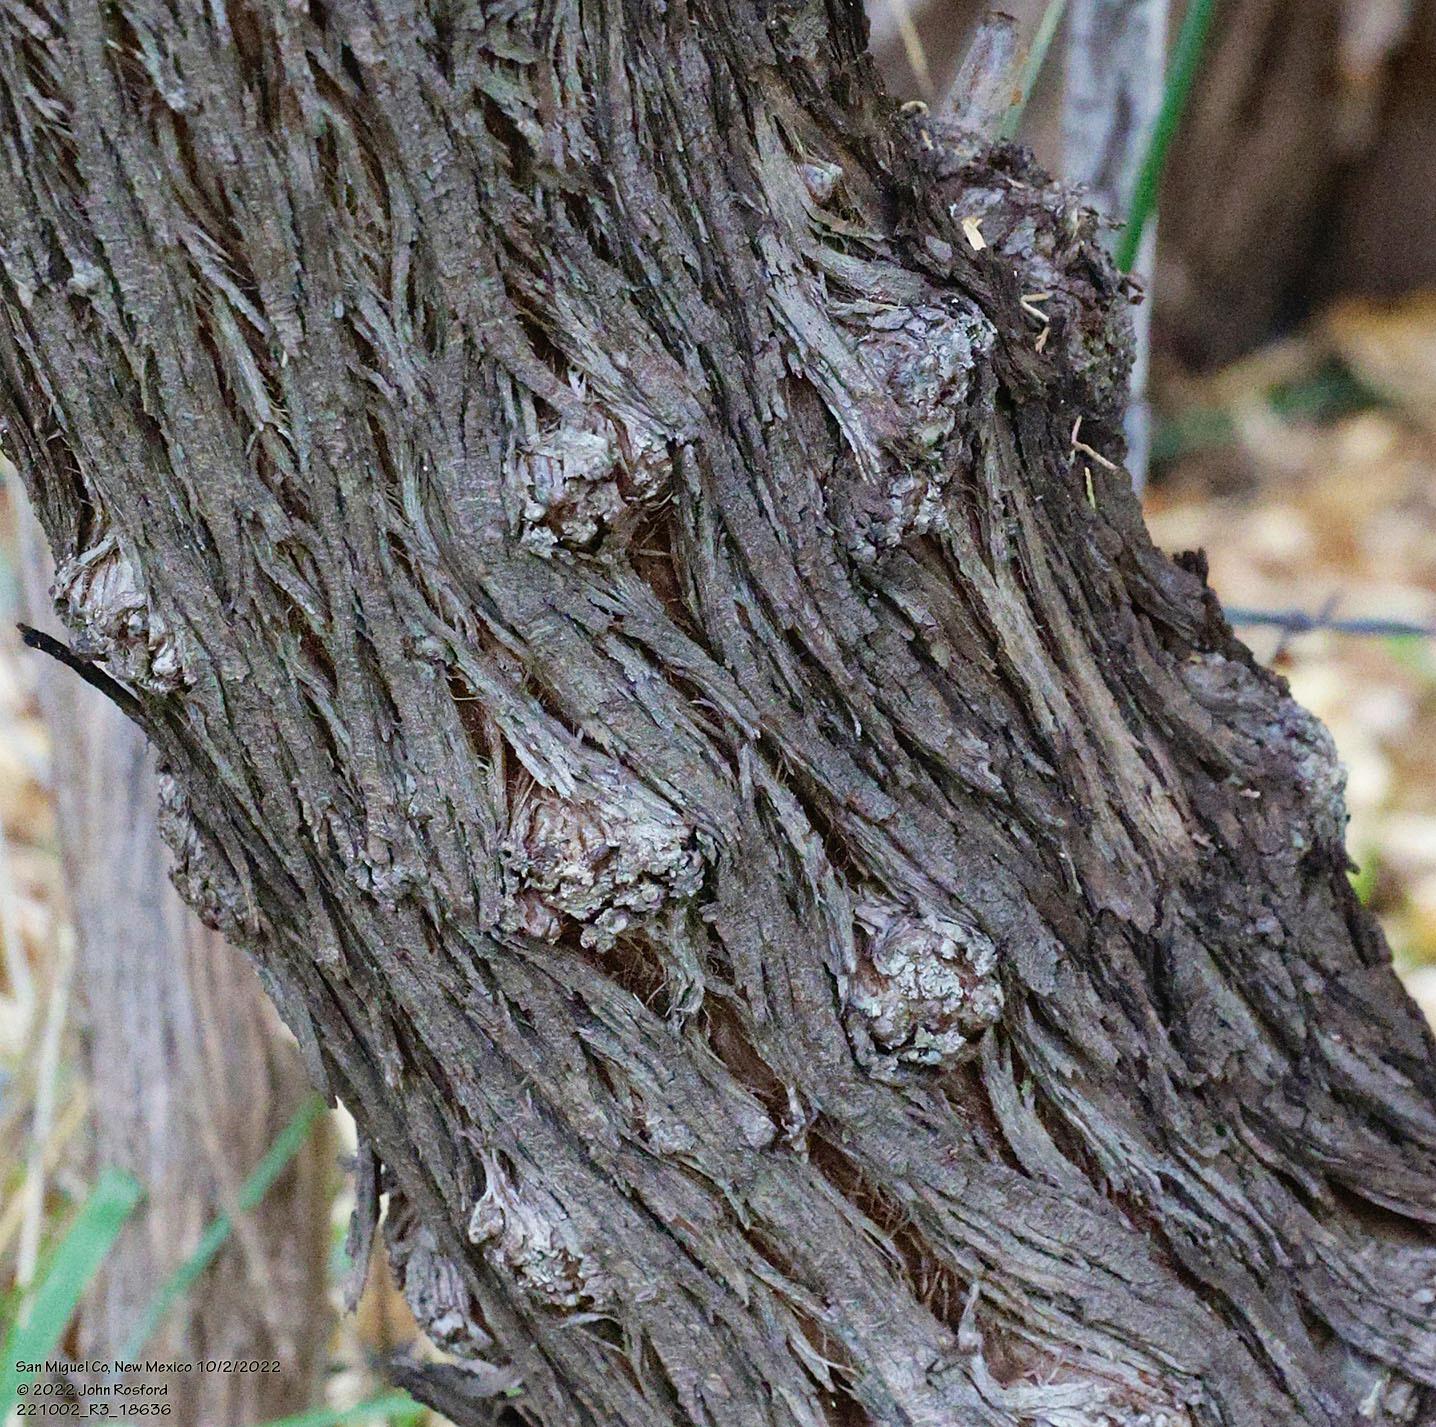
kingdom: Plantae
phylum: Tracheophyta
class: Magnoliopsida
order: Rosales
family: Elaeagnaceae
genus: Elaeagnus
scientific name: Elaeagnus angustifolia
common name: Russian olive
